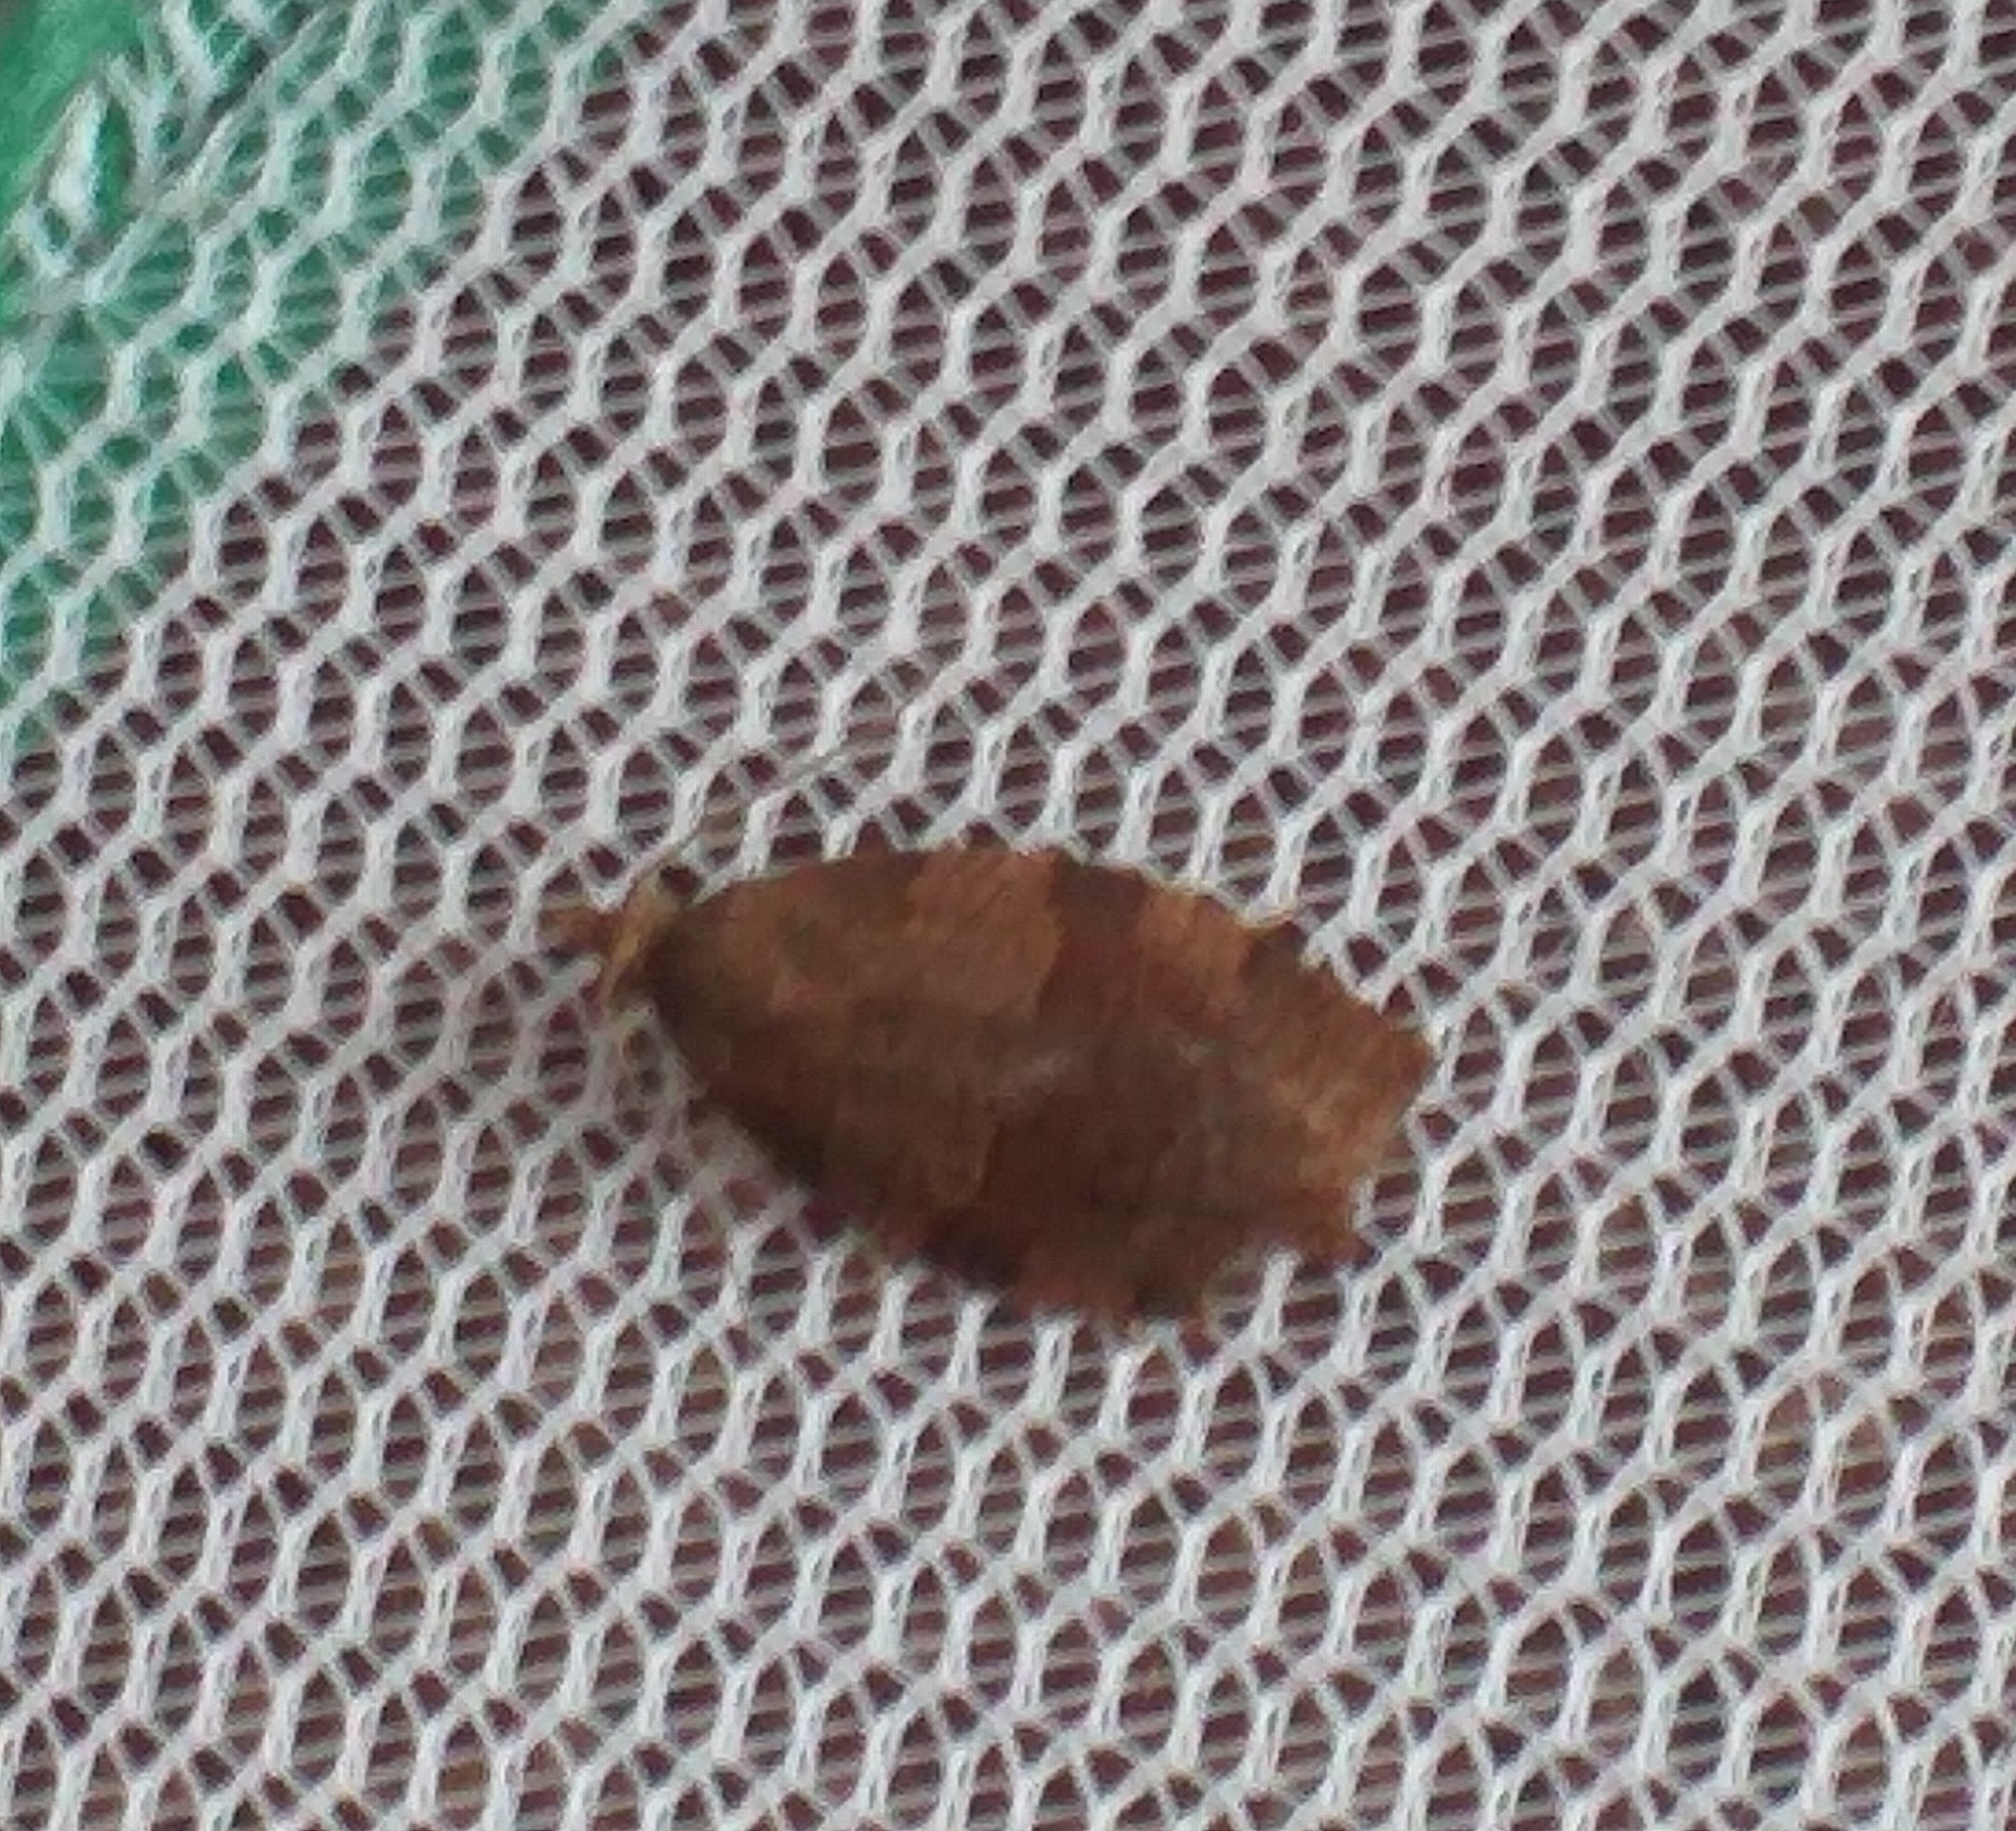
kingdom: Animalia
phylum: Arthropoda
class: Insecta
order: Lepidoptera
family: Tortricidae
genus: Pandemis
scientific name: Pandemis heparana
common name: Dark fruit-tree tortrix
